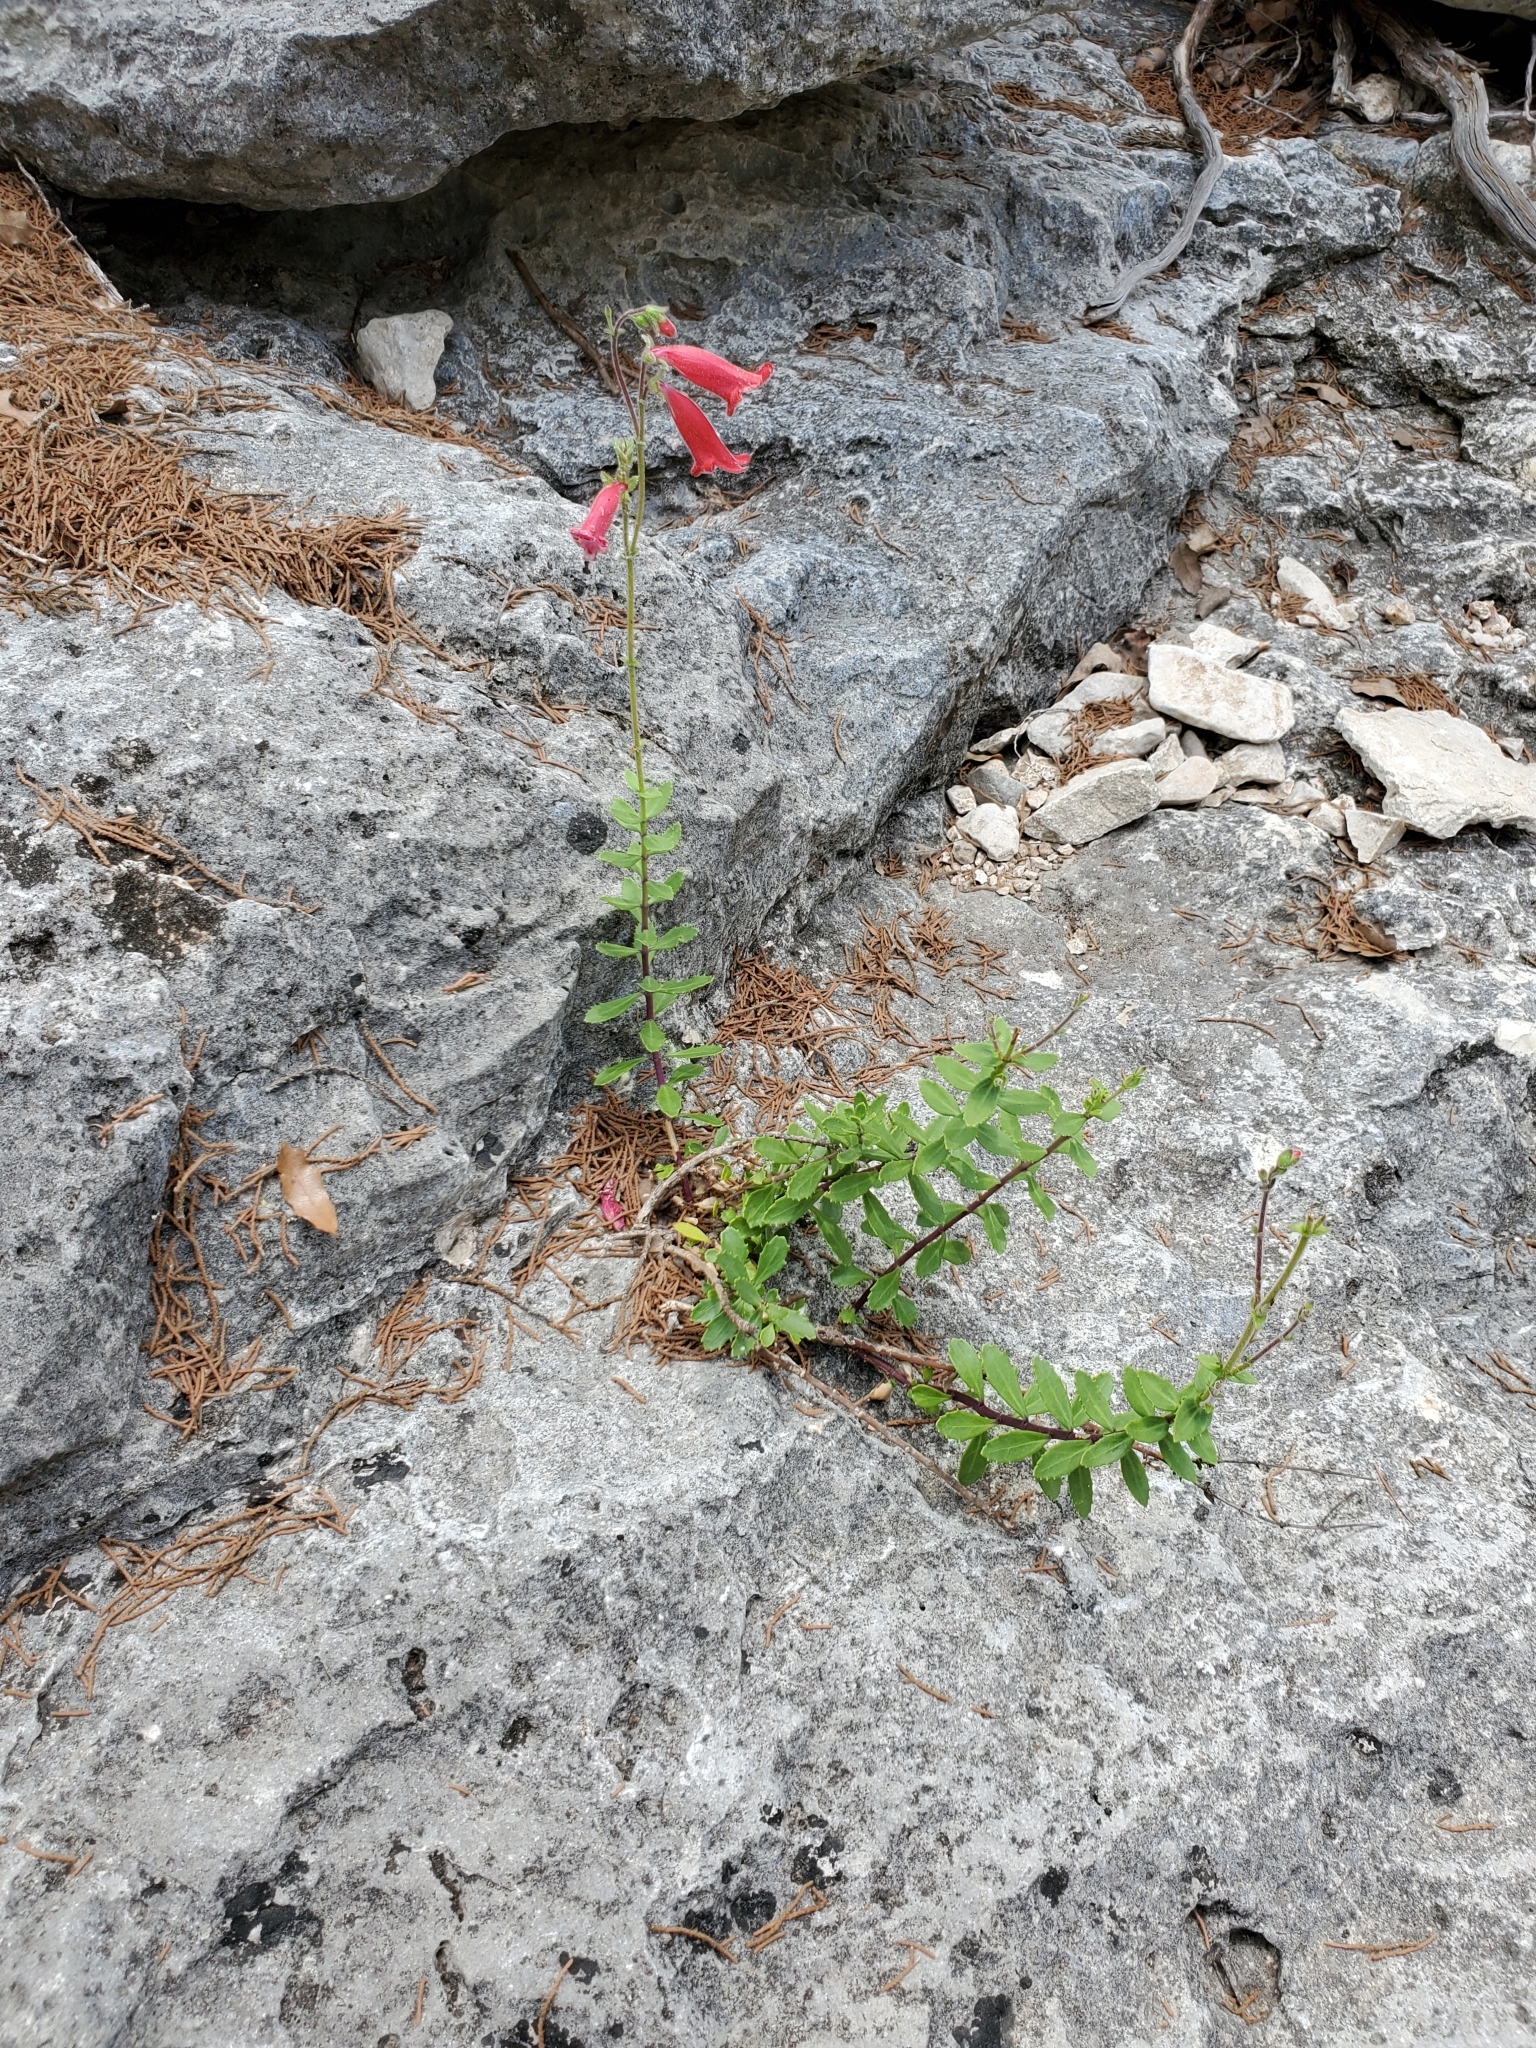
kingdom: Plantae
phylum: Tracheophyta
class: Magnoliopsida
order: Lamiales
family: Plantaginaceae
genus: Penstemon
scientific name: Penstemon baccharifolius
